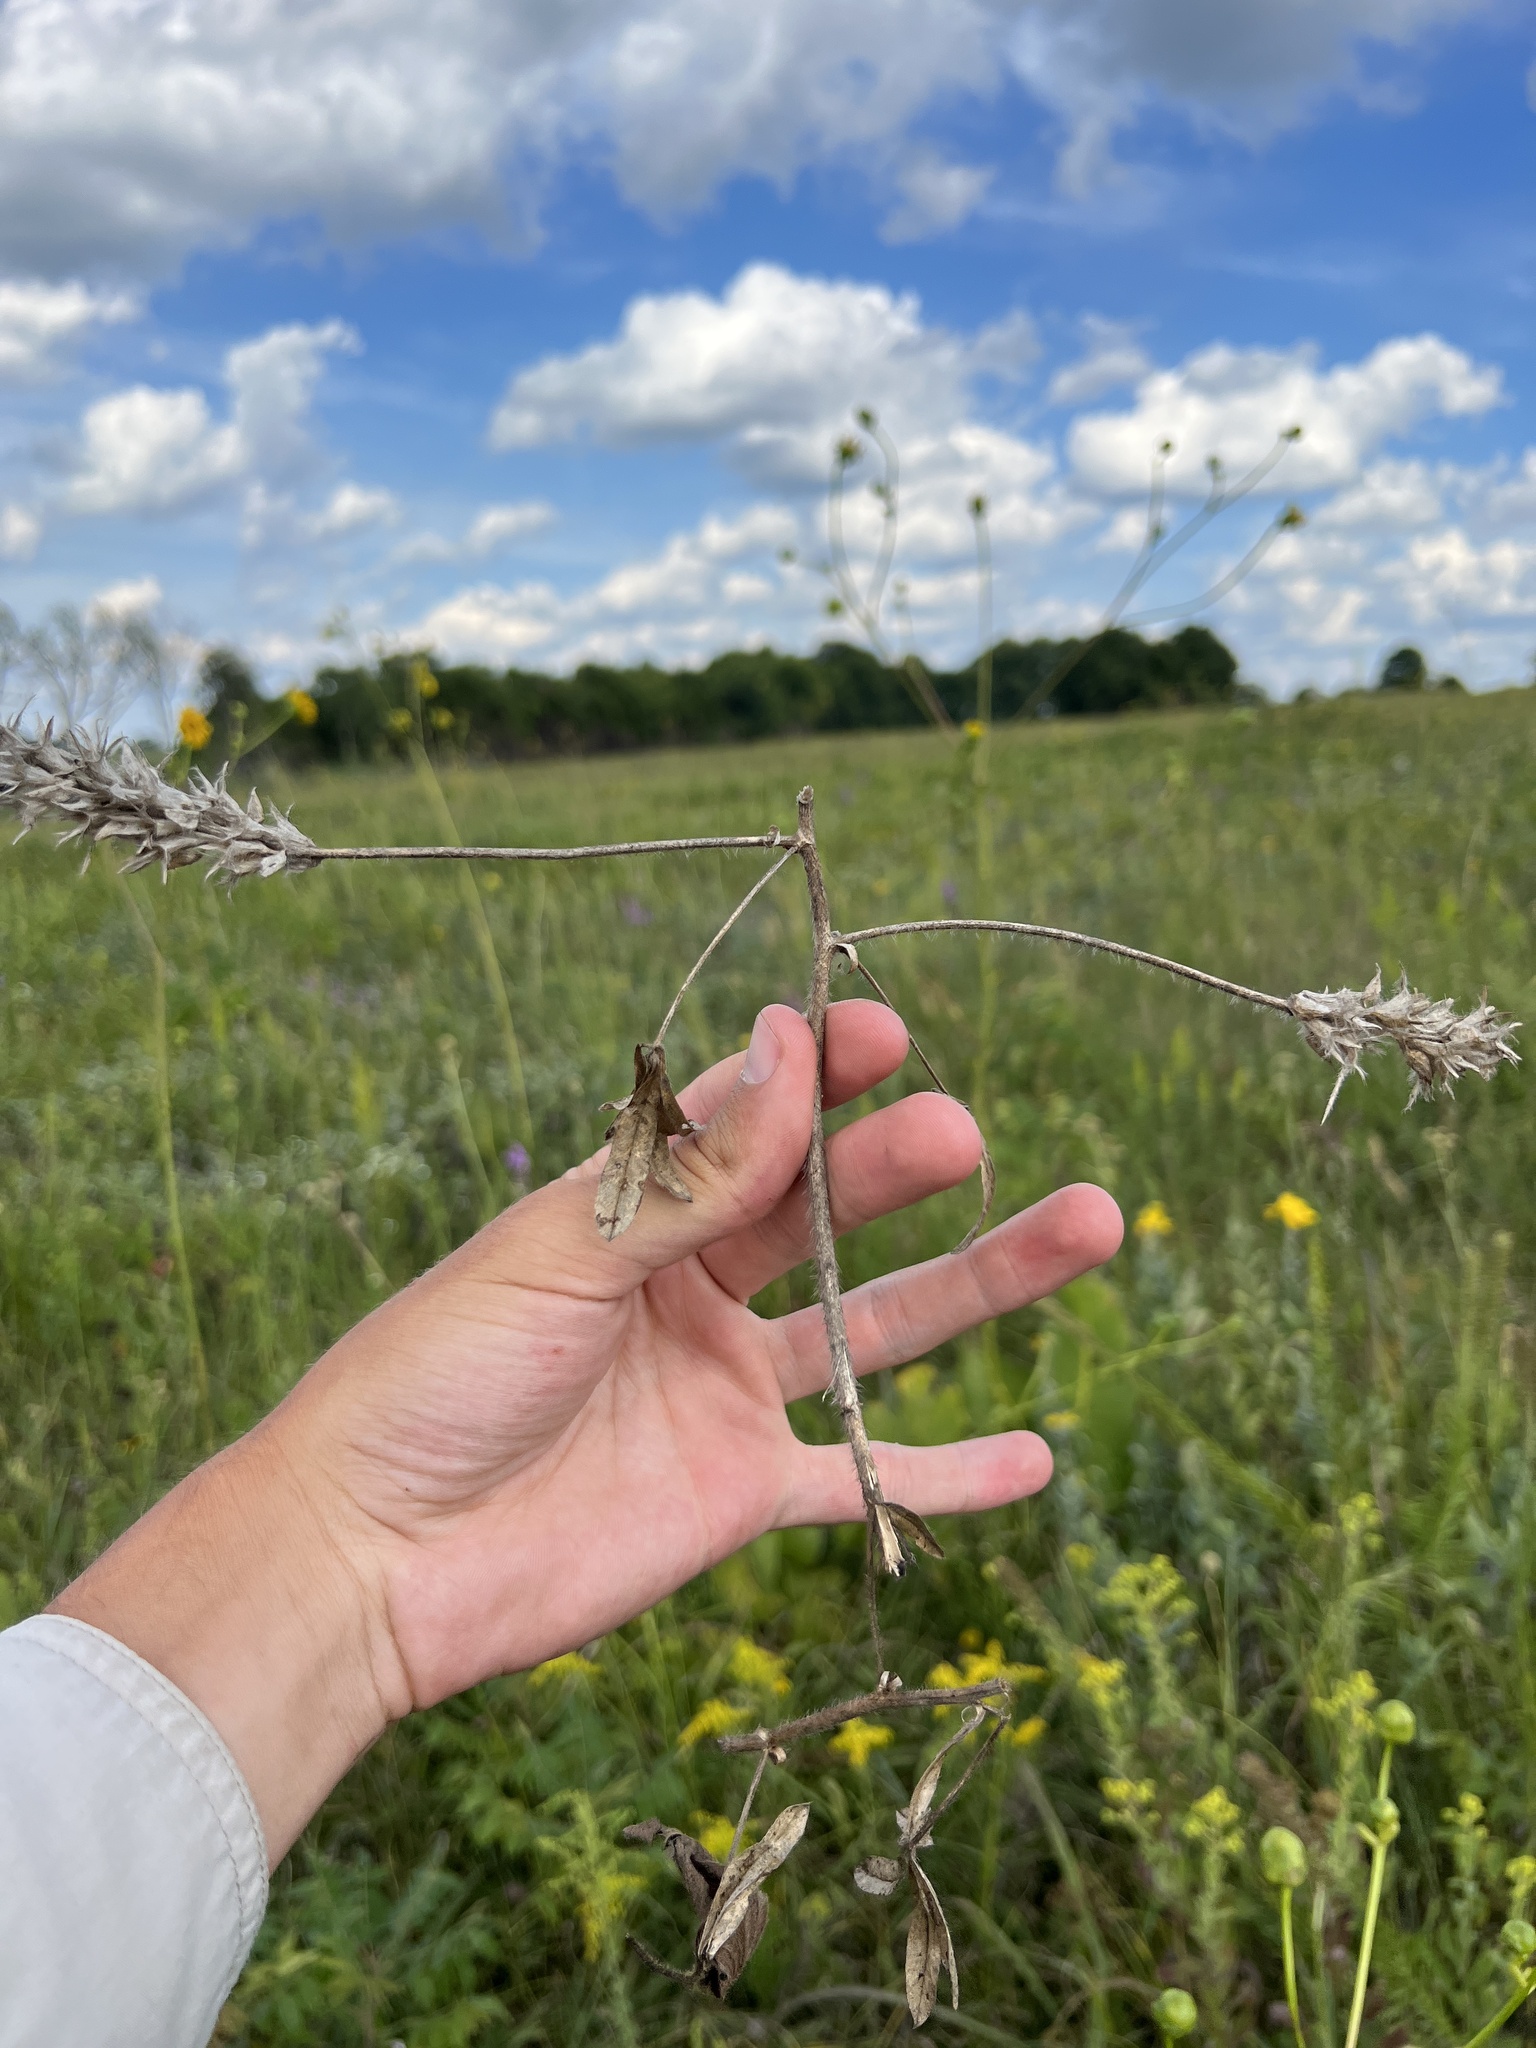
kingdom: Plantae
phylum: Tracheophyta
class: Magnoliopsida
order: Fabales
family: Fabaceae
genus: Pediomelum
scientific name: Pediomelum esculentum
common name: Indian-turnip
